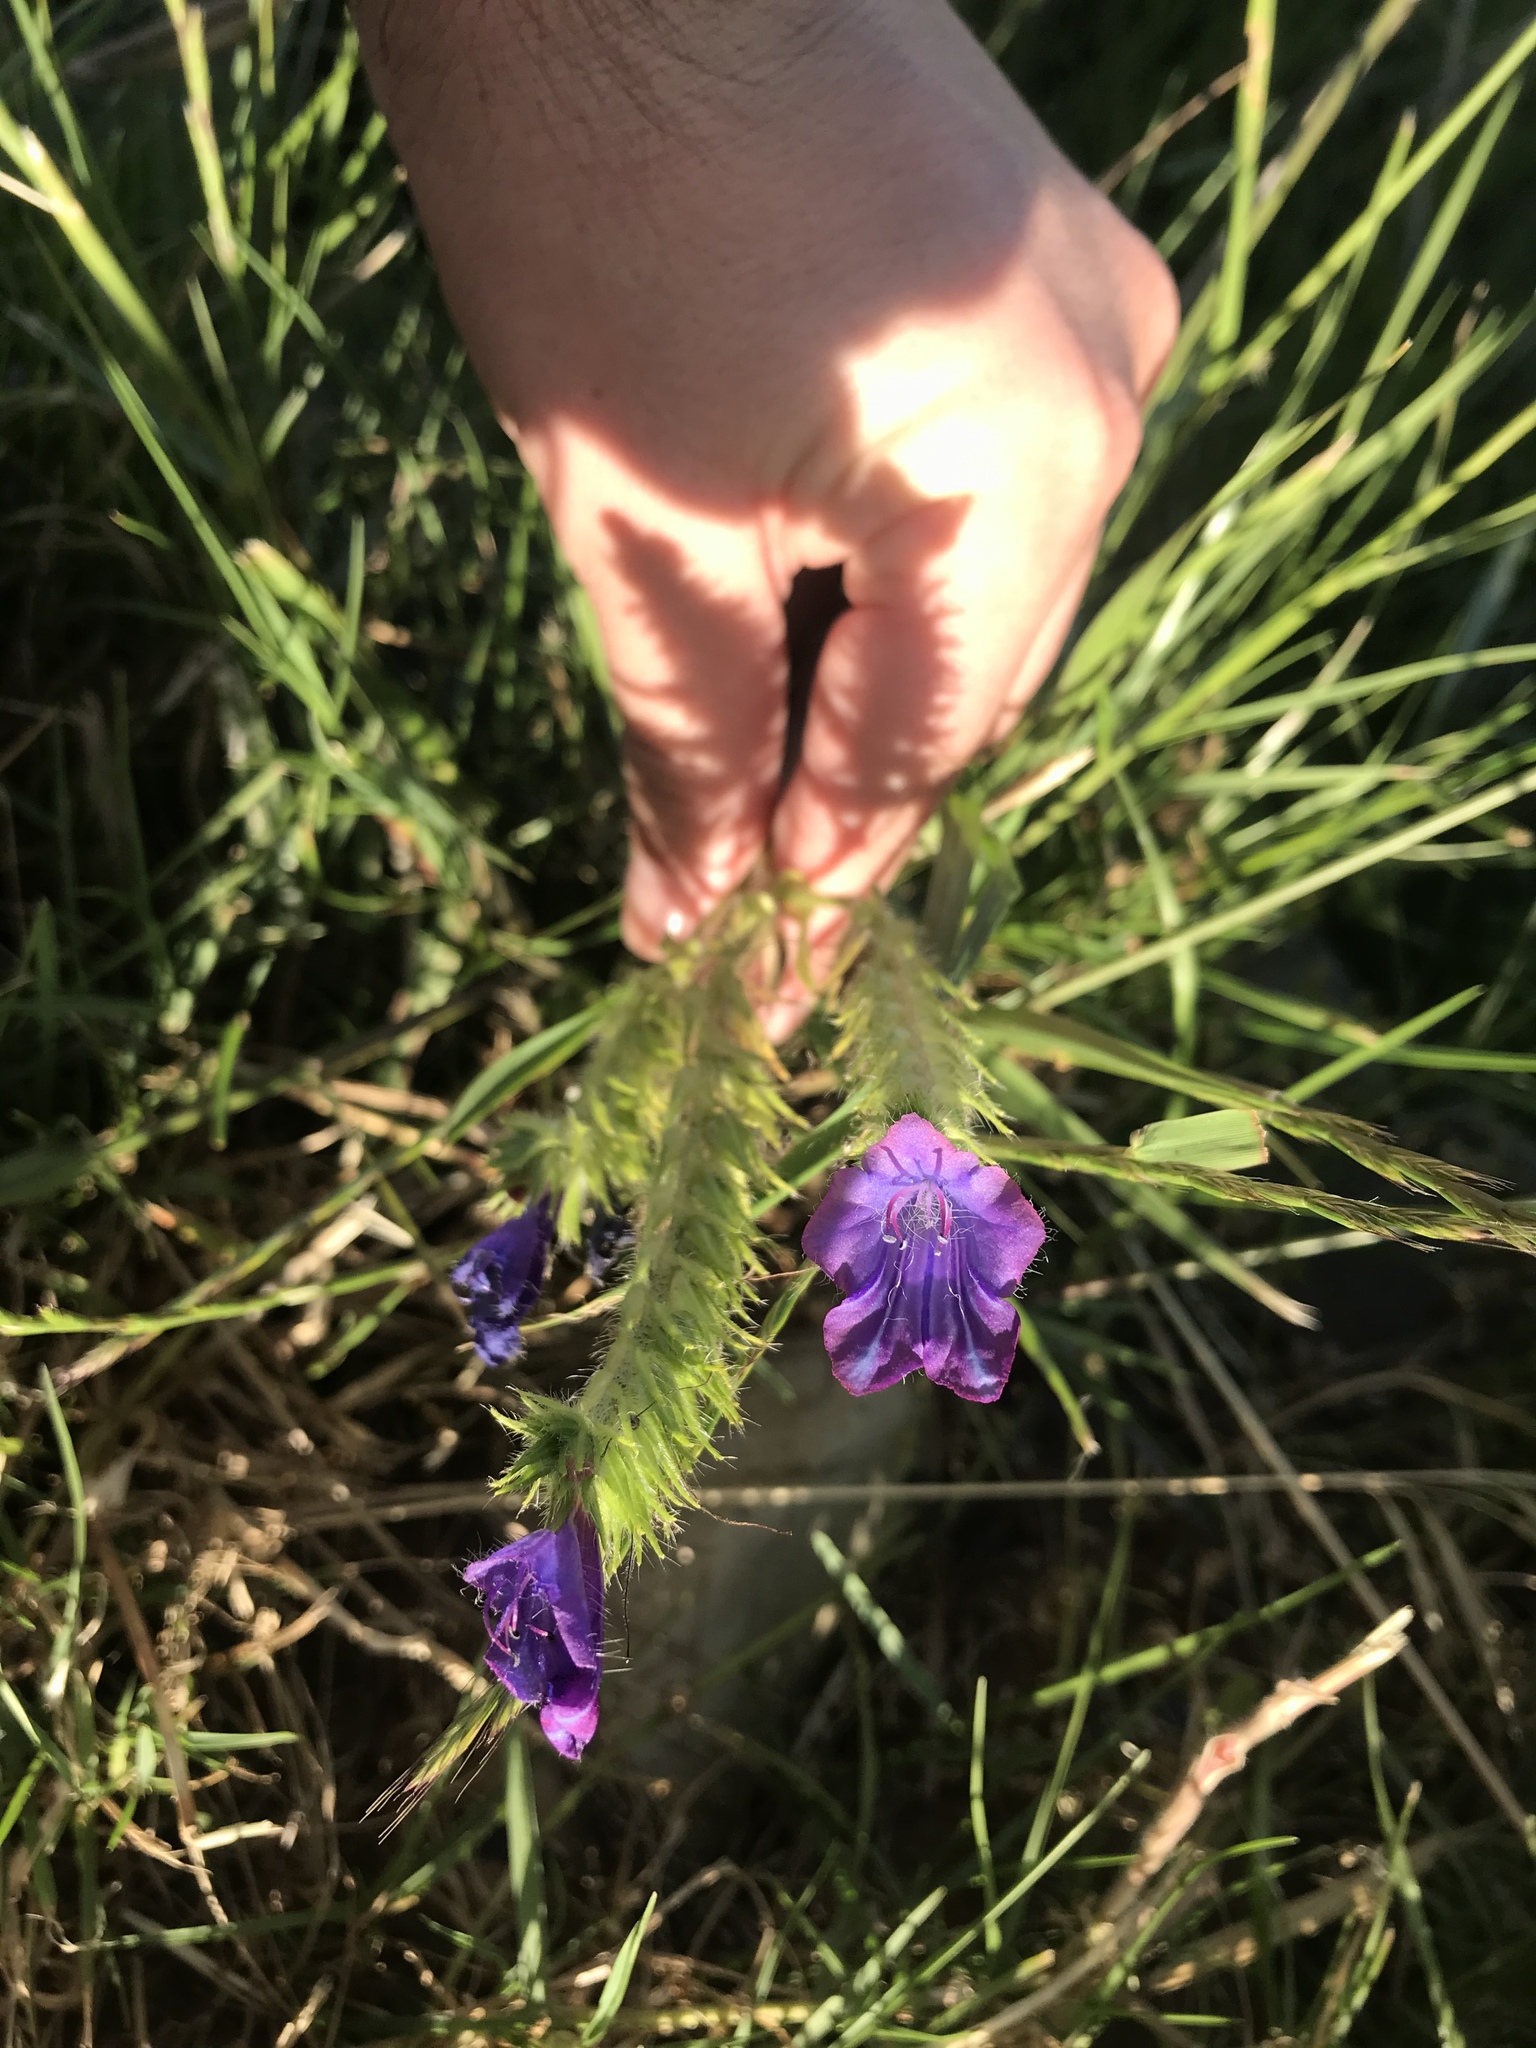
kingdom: Plantae
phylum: Tracheophyta
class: Magnoliopsida
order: Boraginales
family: Boraginaceae
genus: Echium
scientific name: Echium plantagineum
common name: Purple viper's-bugloss
